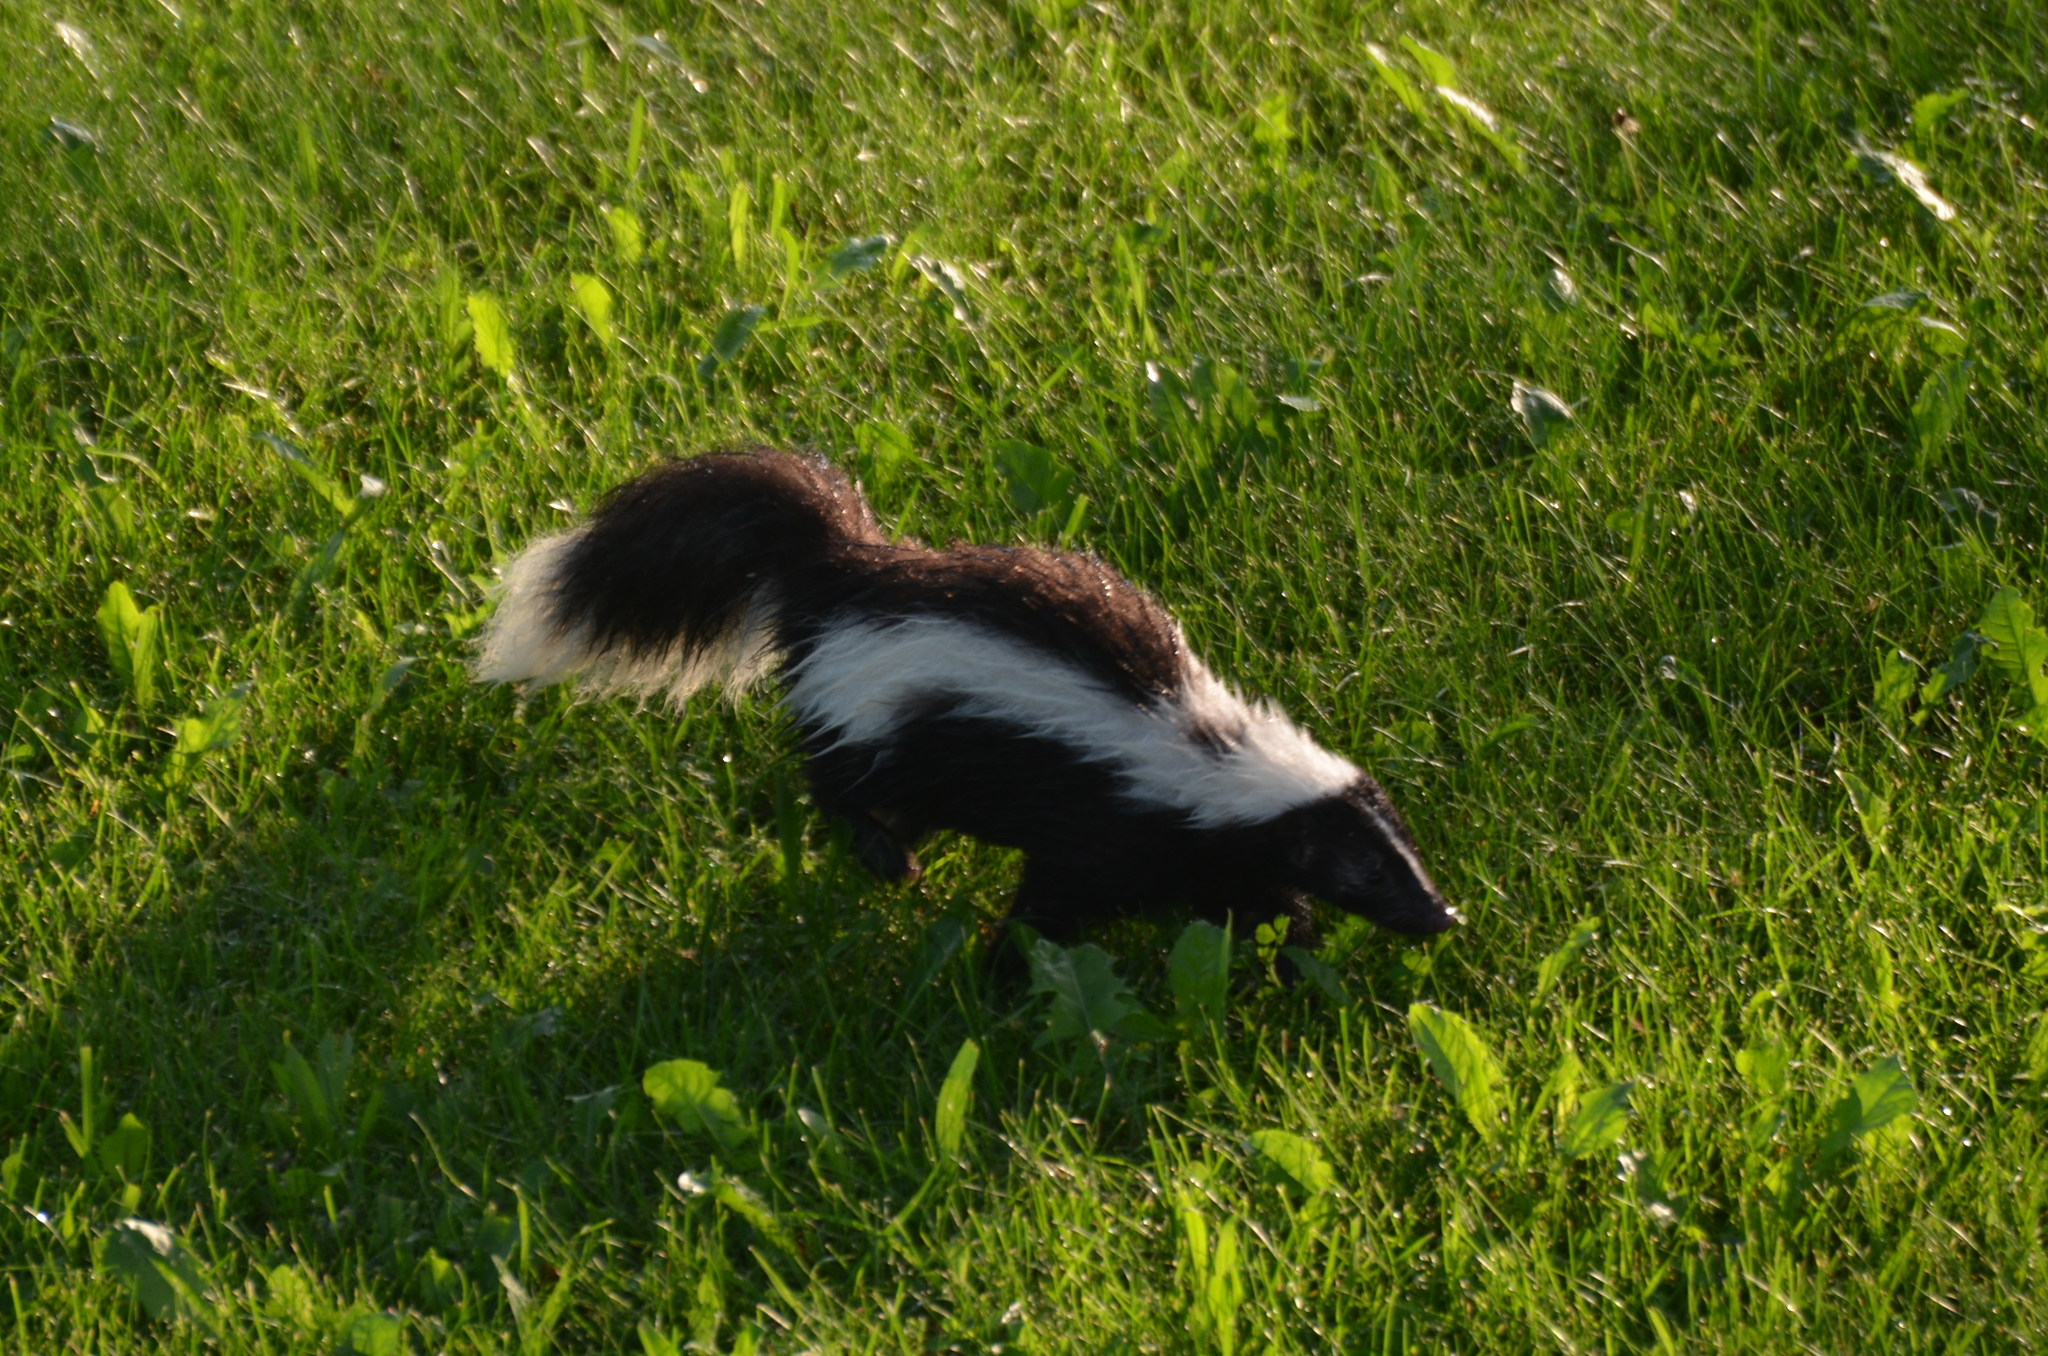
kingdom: Animalia
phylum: Chordata
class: Mammalia
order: Carnivora
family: Mephitidae
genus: Mephitis
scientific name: Mephitis mephitis
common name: Striped skunk
